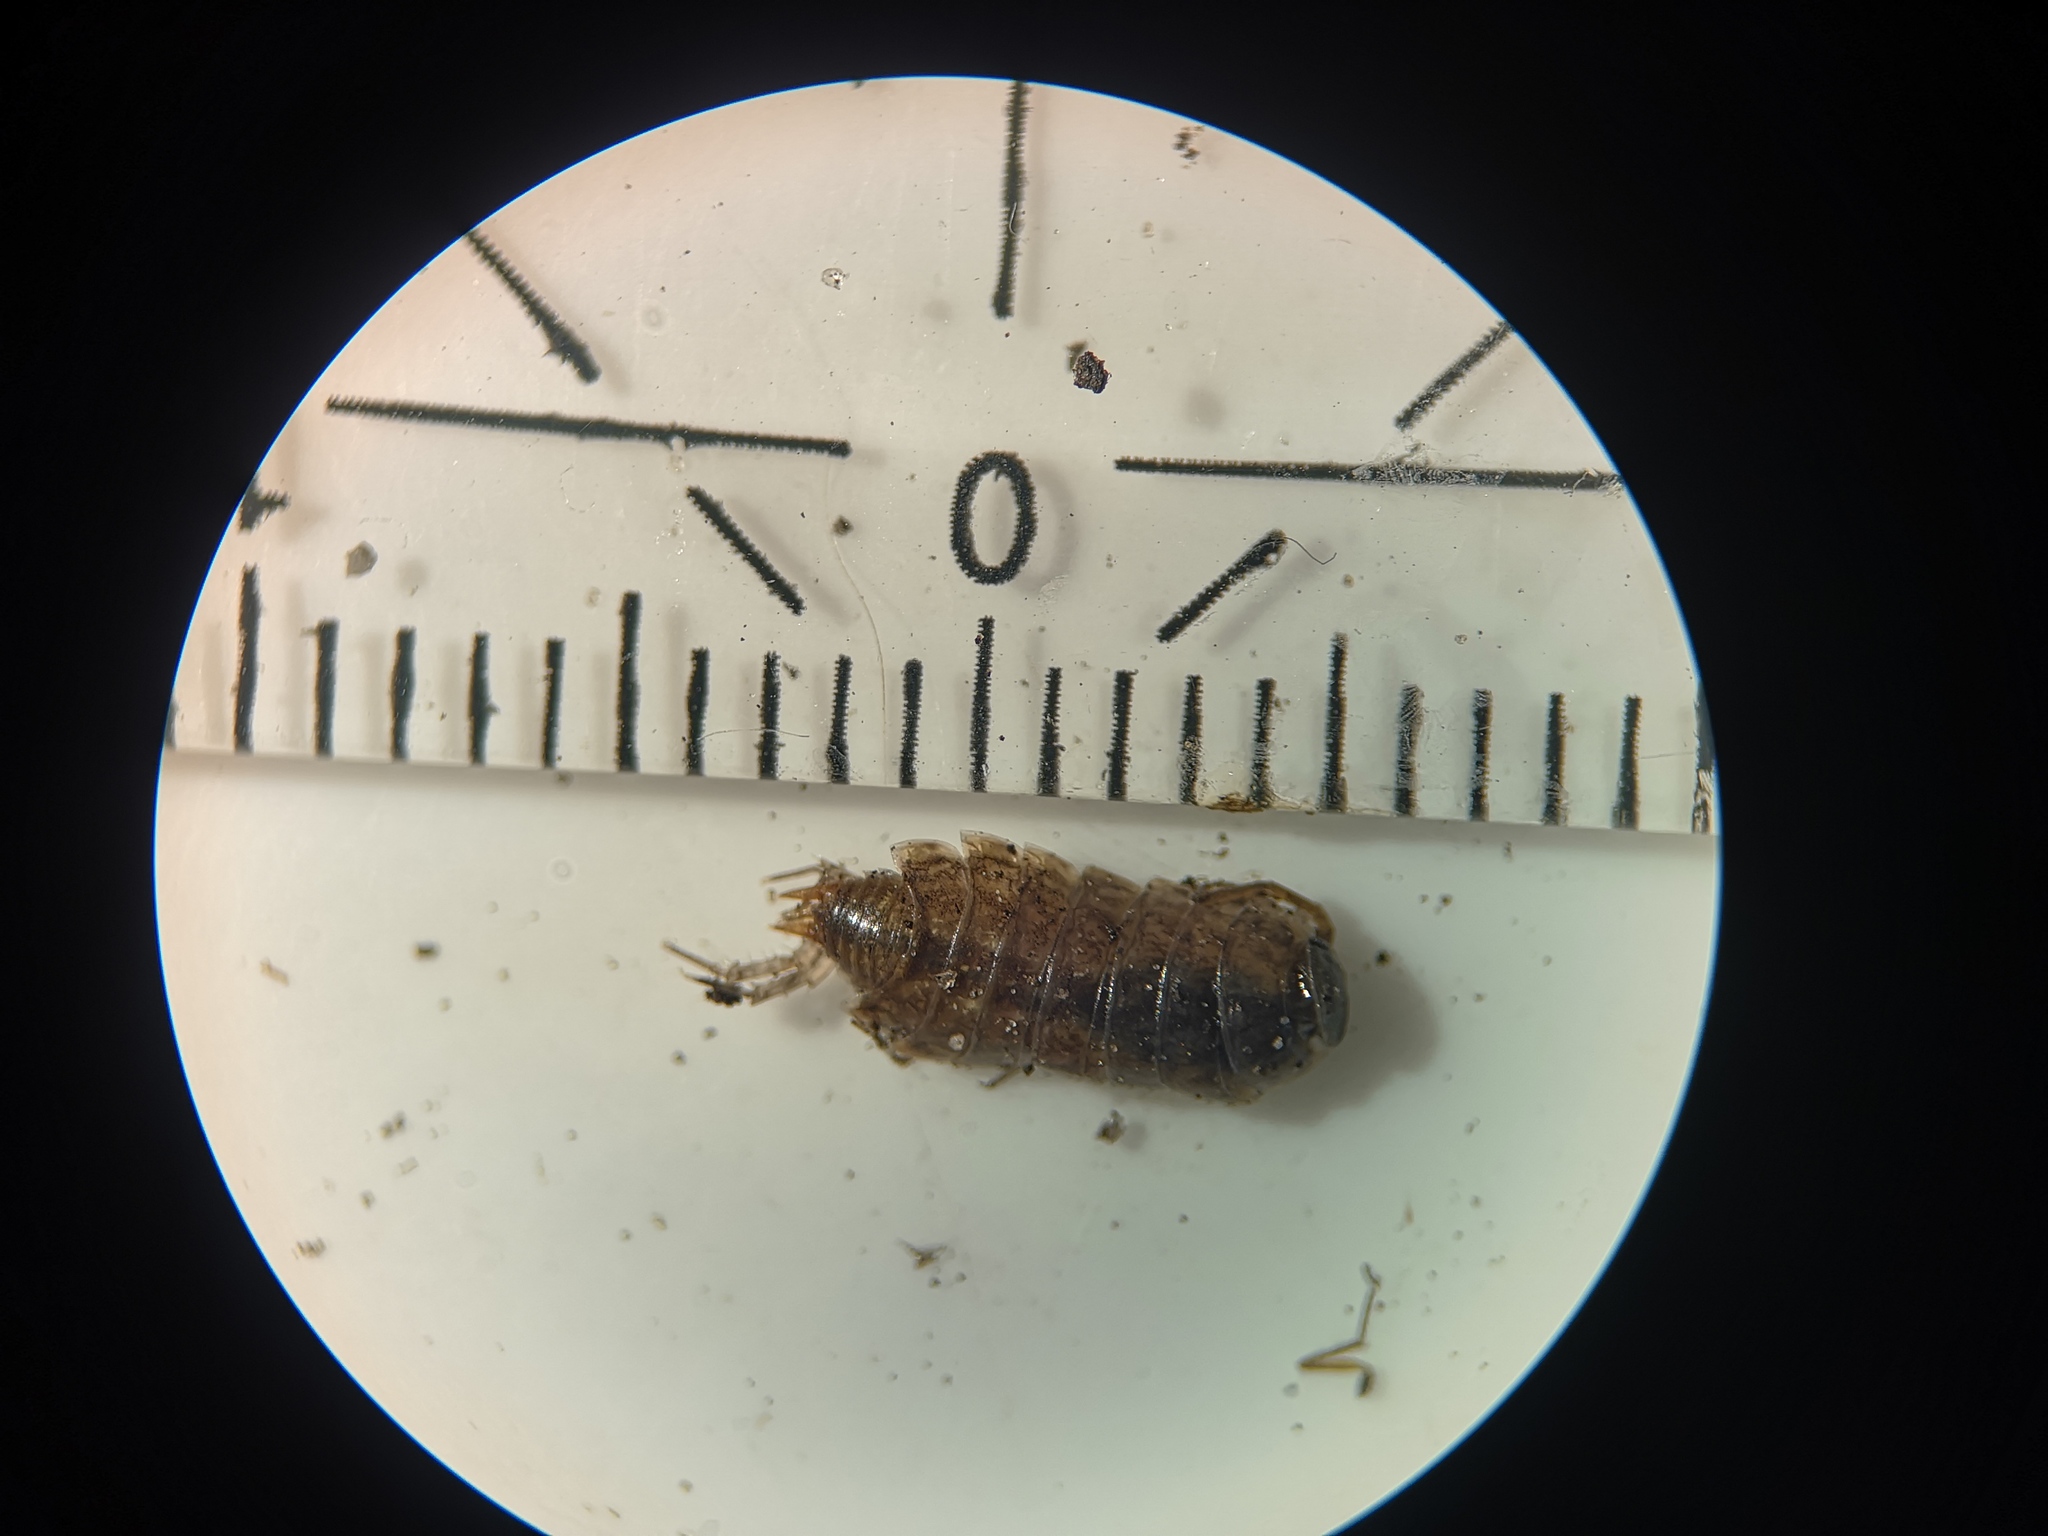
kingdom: Animalia
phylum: Arthropoda
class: Malacostraca
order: Isopoda
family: Philosciidae
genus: Philoscia
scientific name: Philoscia muscorum
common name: Common striped woodlouse
